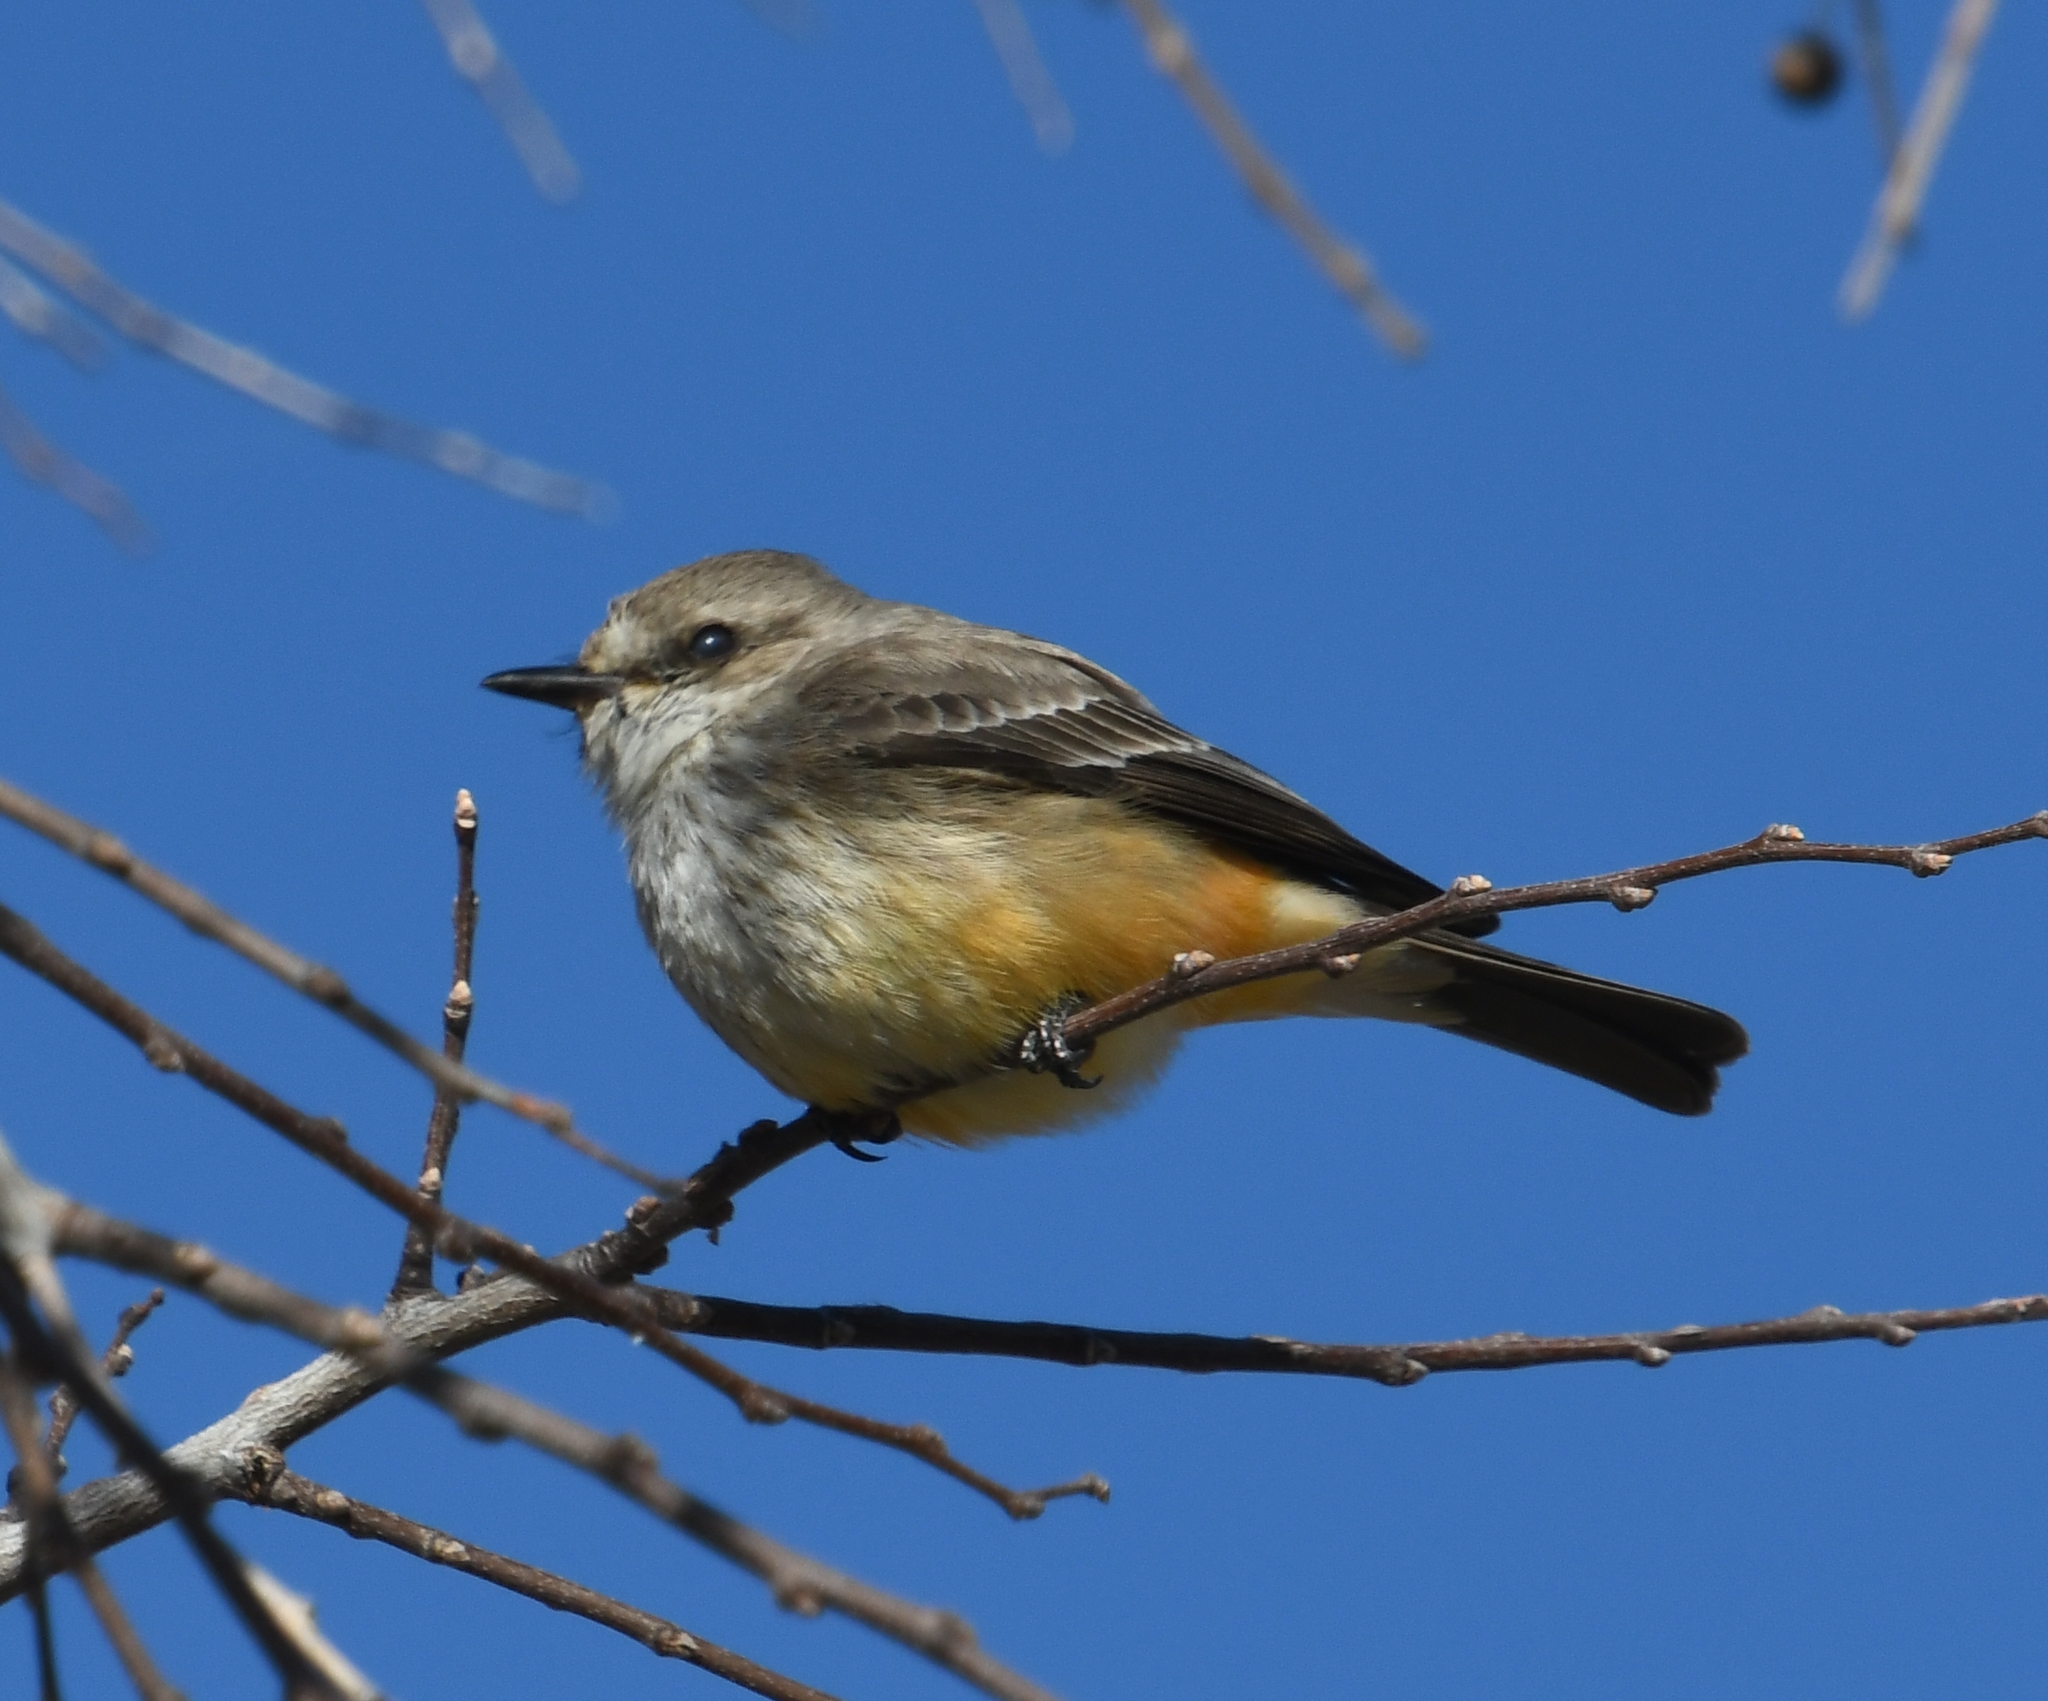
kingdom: Animalia
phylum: Chordata
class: Aves
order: Passeriformes
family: Tyrannidae
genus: Pyrocephalus
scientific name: Pyrocephalus rubinus
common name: Vermilion flycatcher
